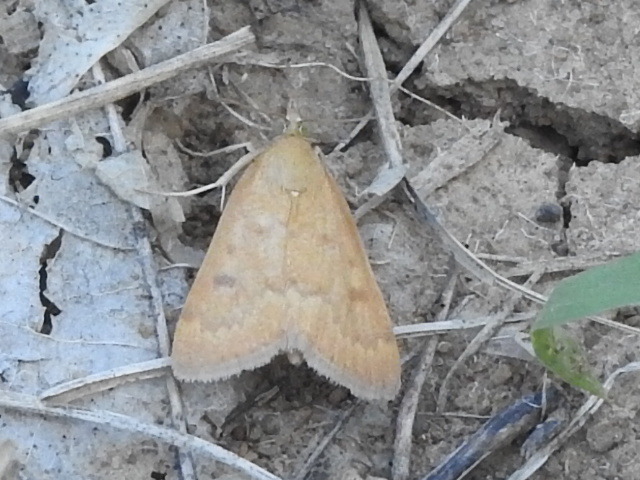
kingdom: Animalia
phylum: Arthropoda
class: Insecta
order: Lepidoptera
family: Crambidae
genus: Achyra
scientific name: Achyra rantalis
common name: Garden webworm
